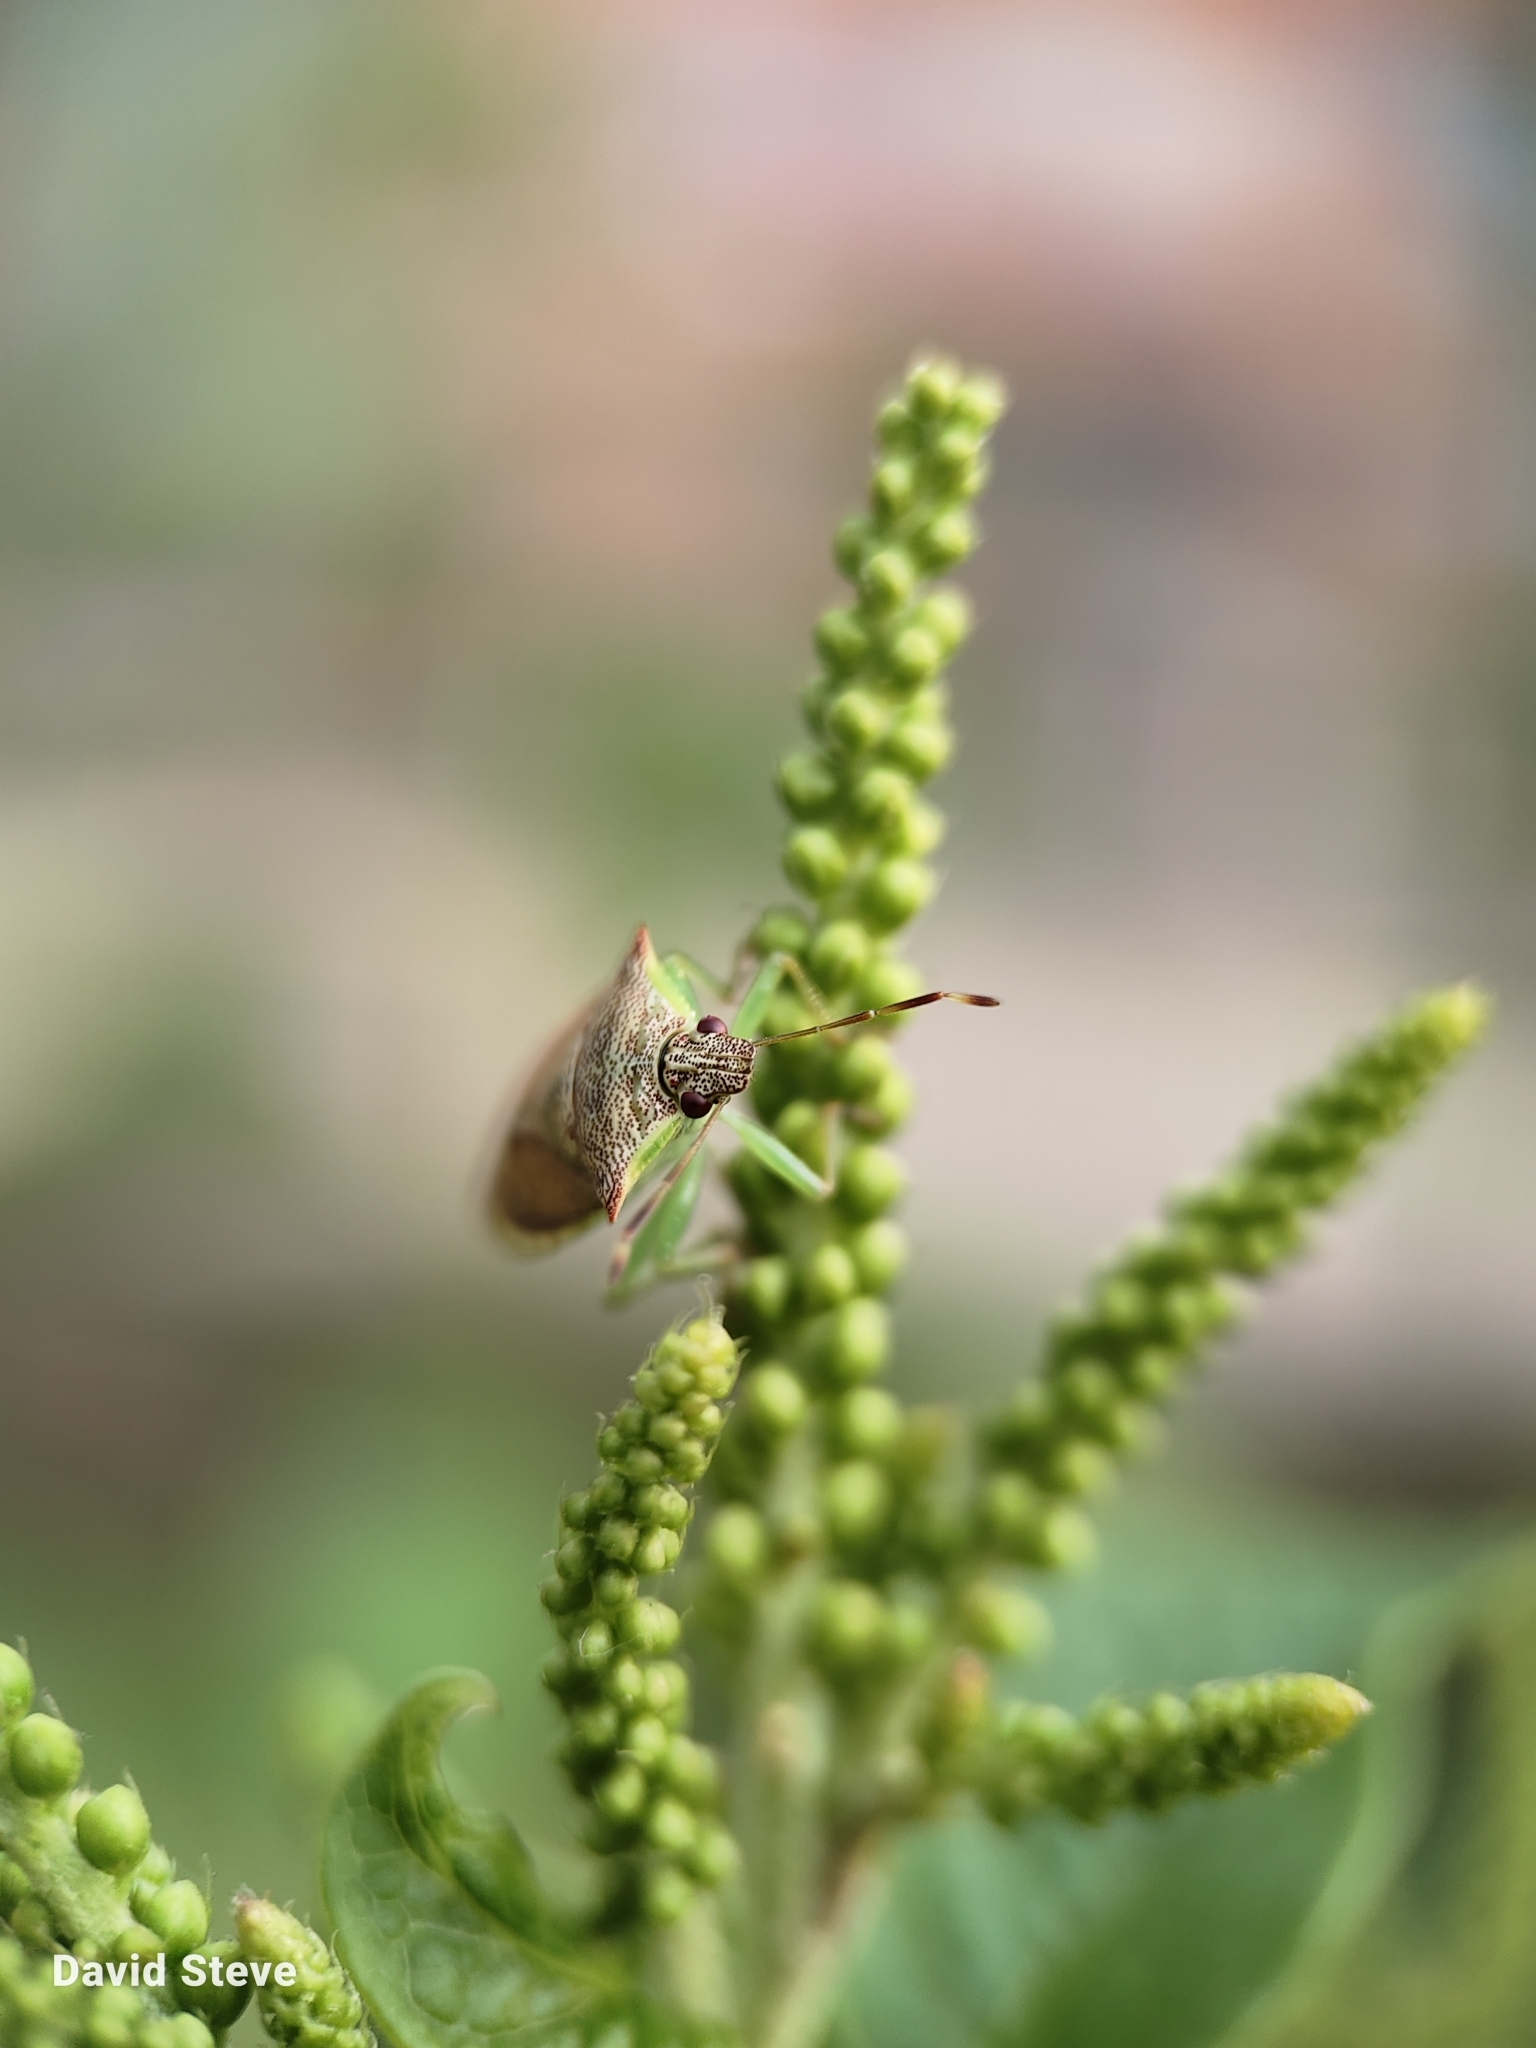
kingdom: Animalia
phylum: Arthropoda
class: Insecta
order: Hemiptera
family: Pentatomidae
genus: Podisus
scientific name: Podisus
